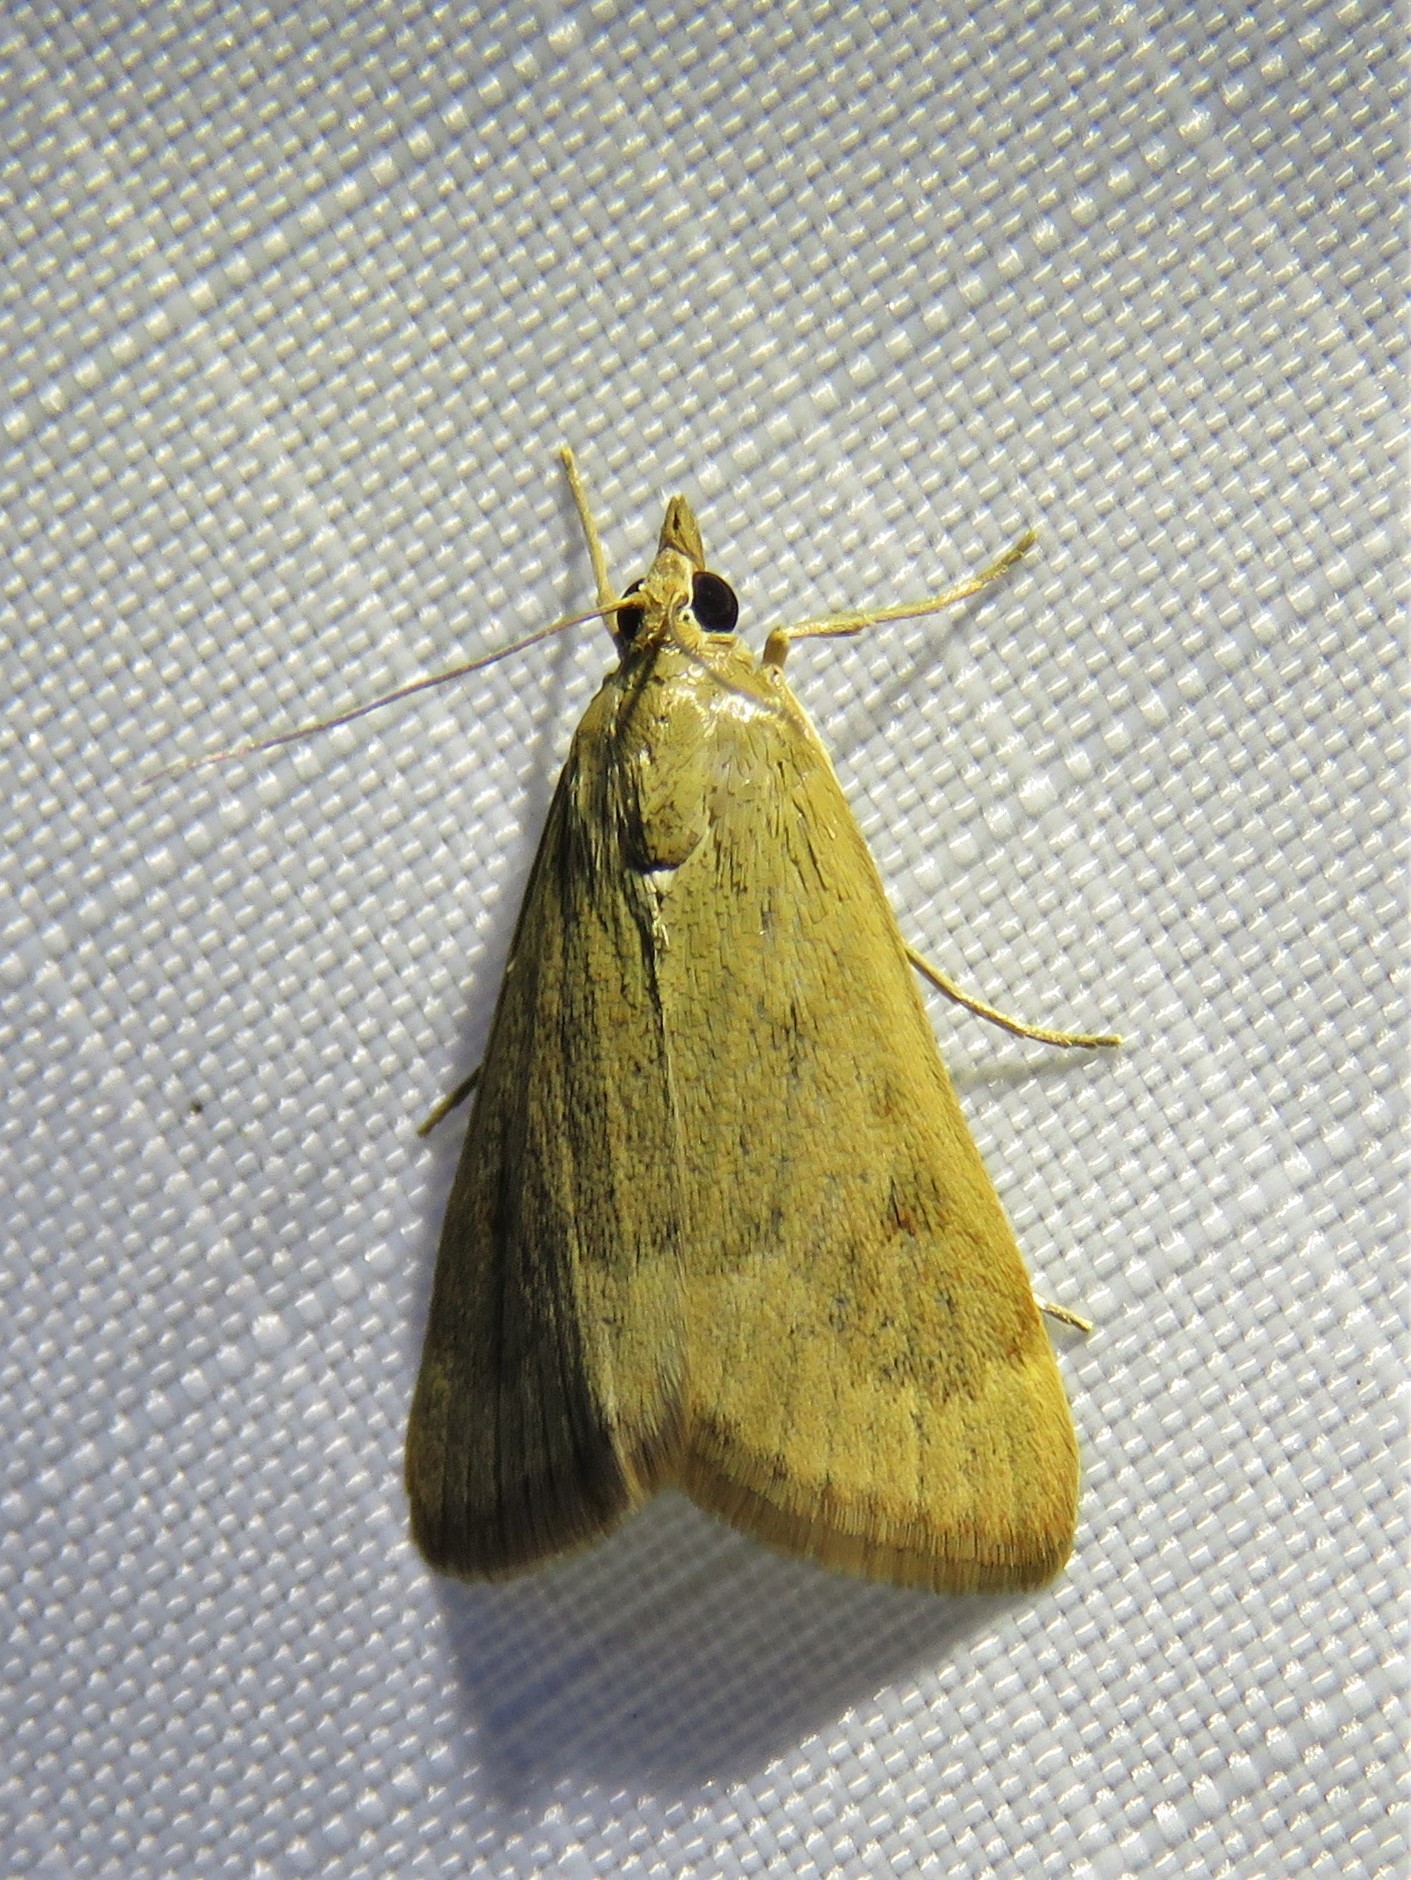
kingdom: Animalia
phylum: Arthropoda
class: Insecta
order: Lepidoptera
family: Crambidae
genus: Achyra
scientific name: Achyra rantalis
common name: Garden webworm
